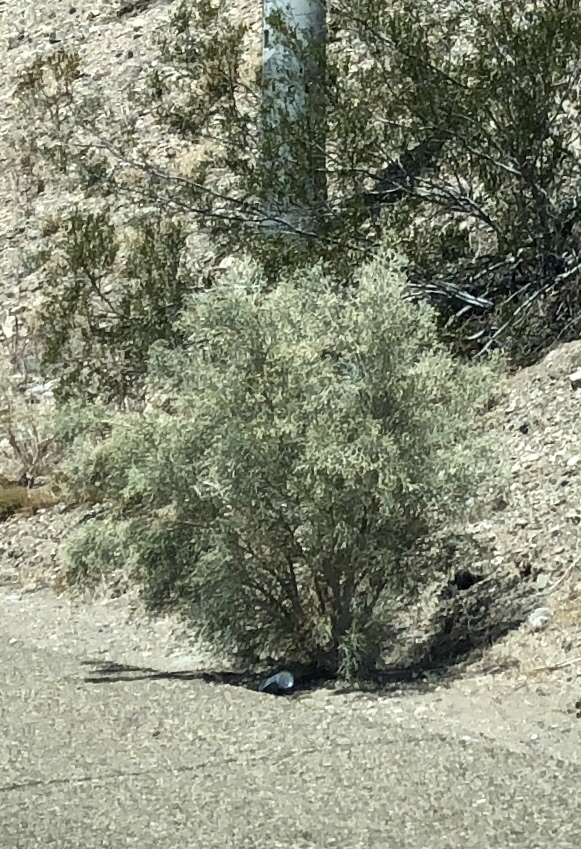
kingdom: Plantae
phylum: Tracheophyta
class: Magnoliopsida
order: Fabales
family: Fabaceae
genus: Psorothamnus
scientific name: Psorothamnus spinosus
